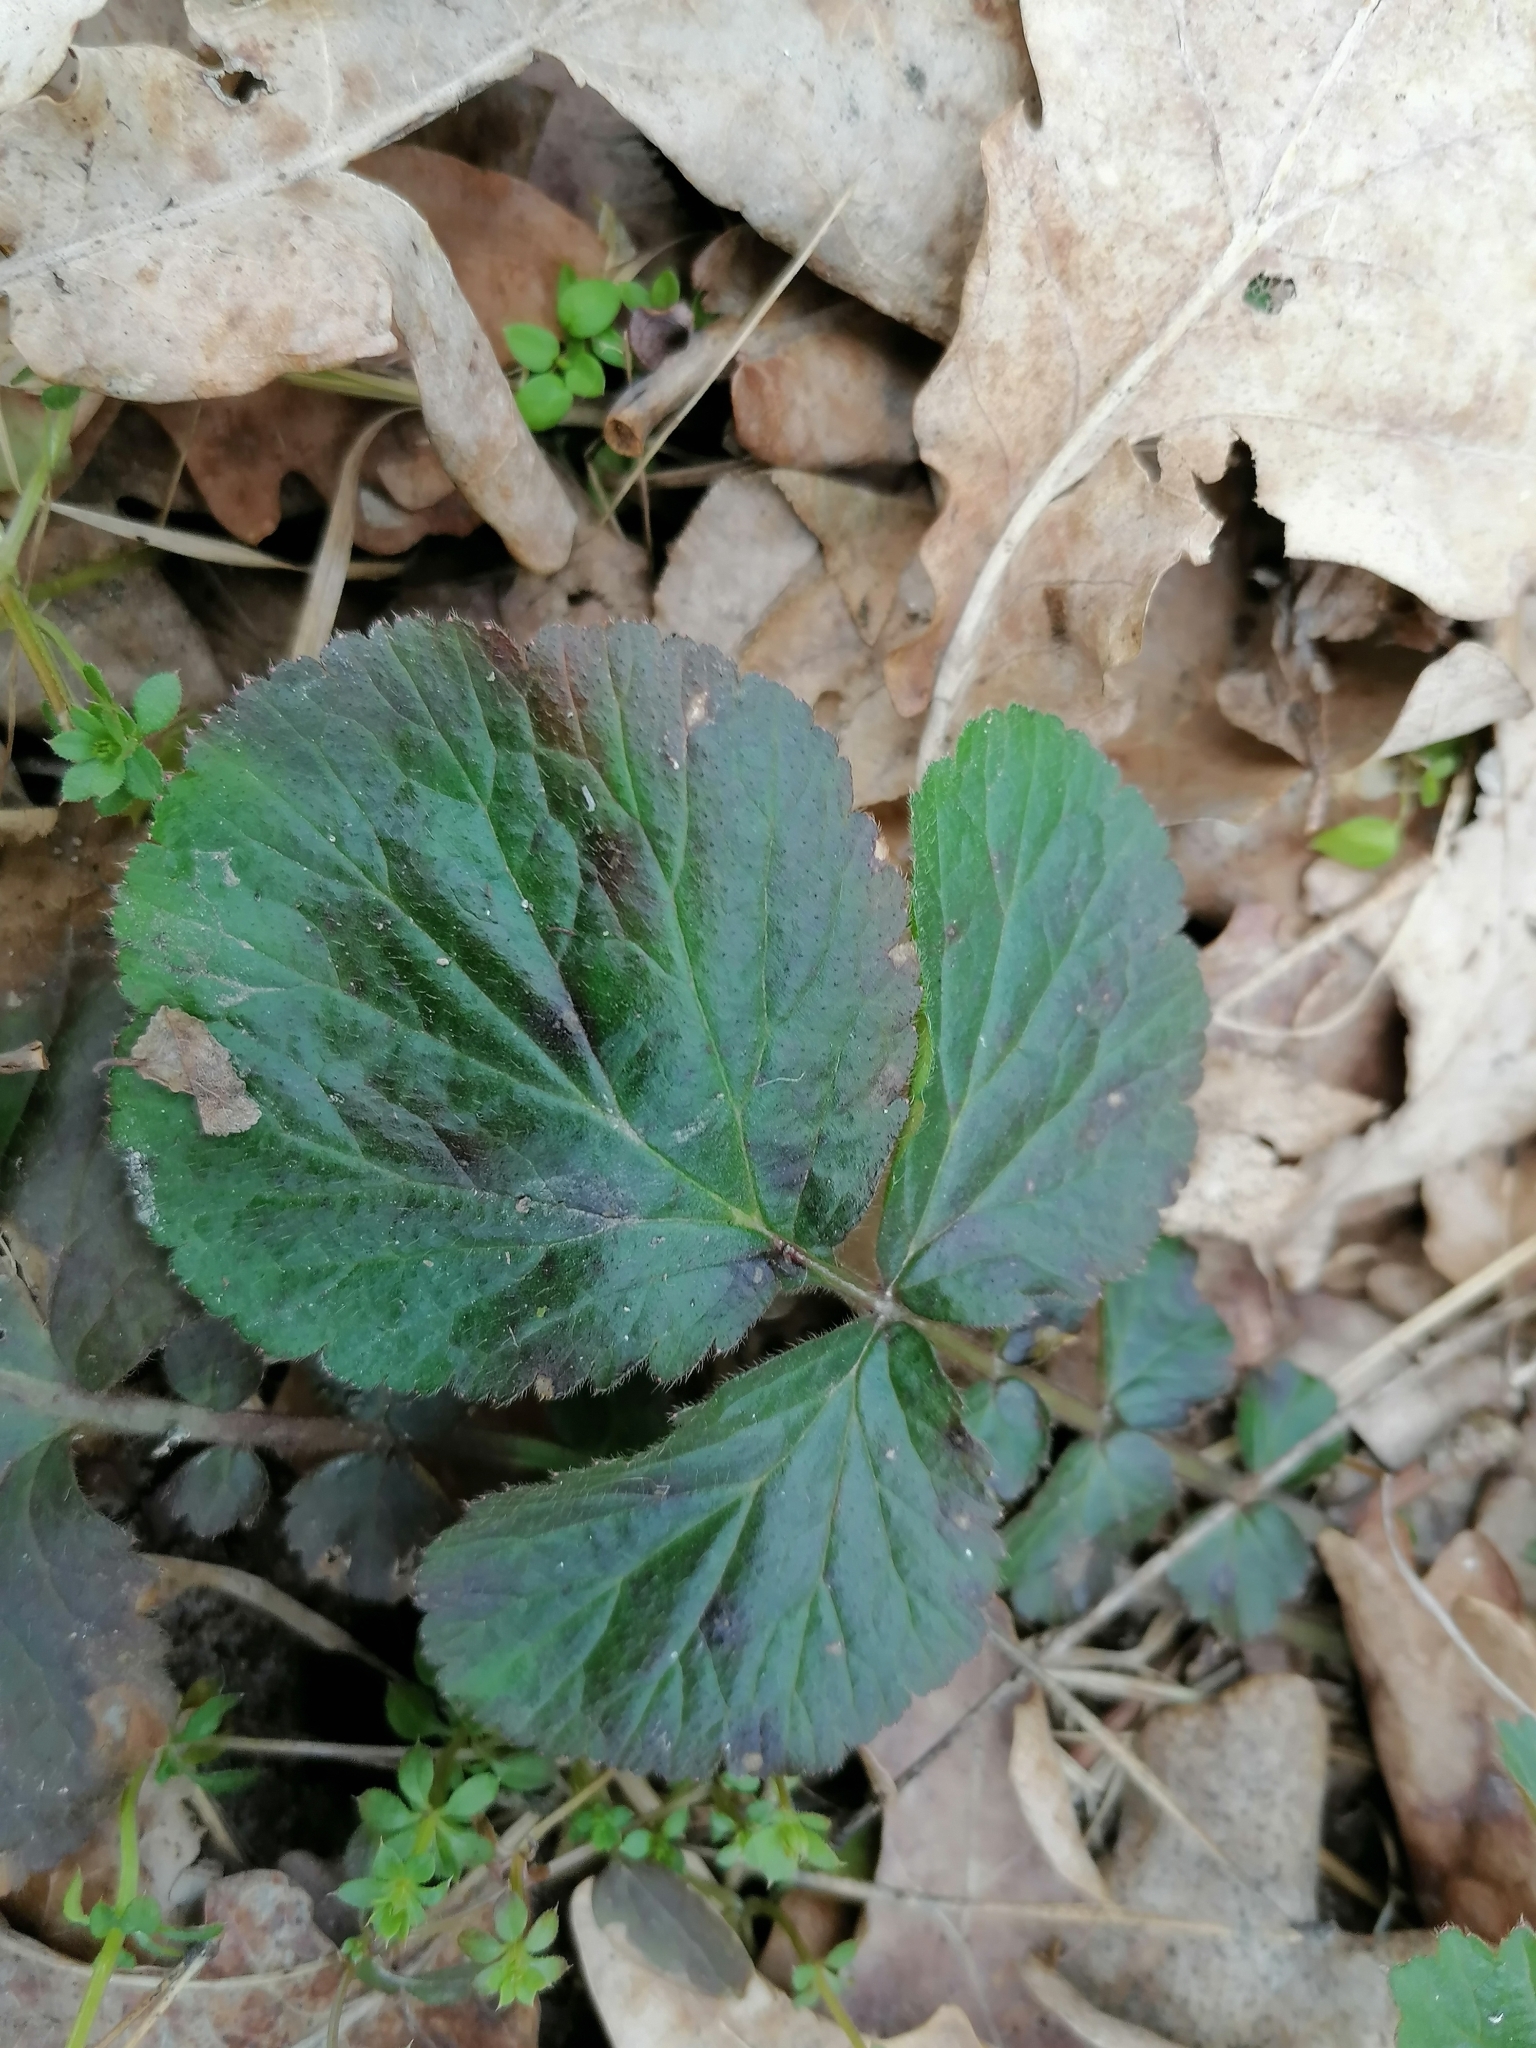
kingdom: Plantae
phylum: Tracheophyta
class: Magnoliopsida
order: Rosales
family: Rosaceae
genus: Geum
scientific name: Geum urbanum
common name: Wood avens
